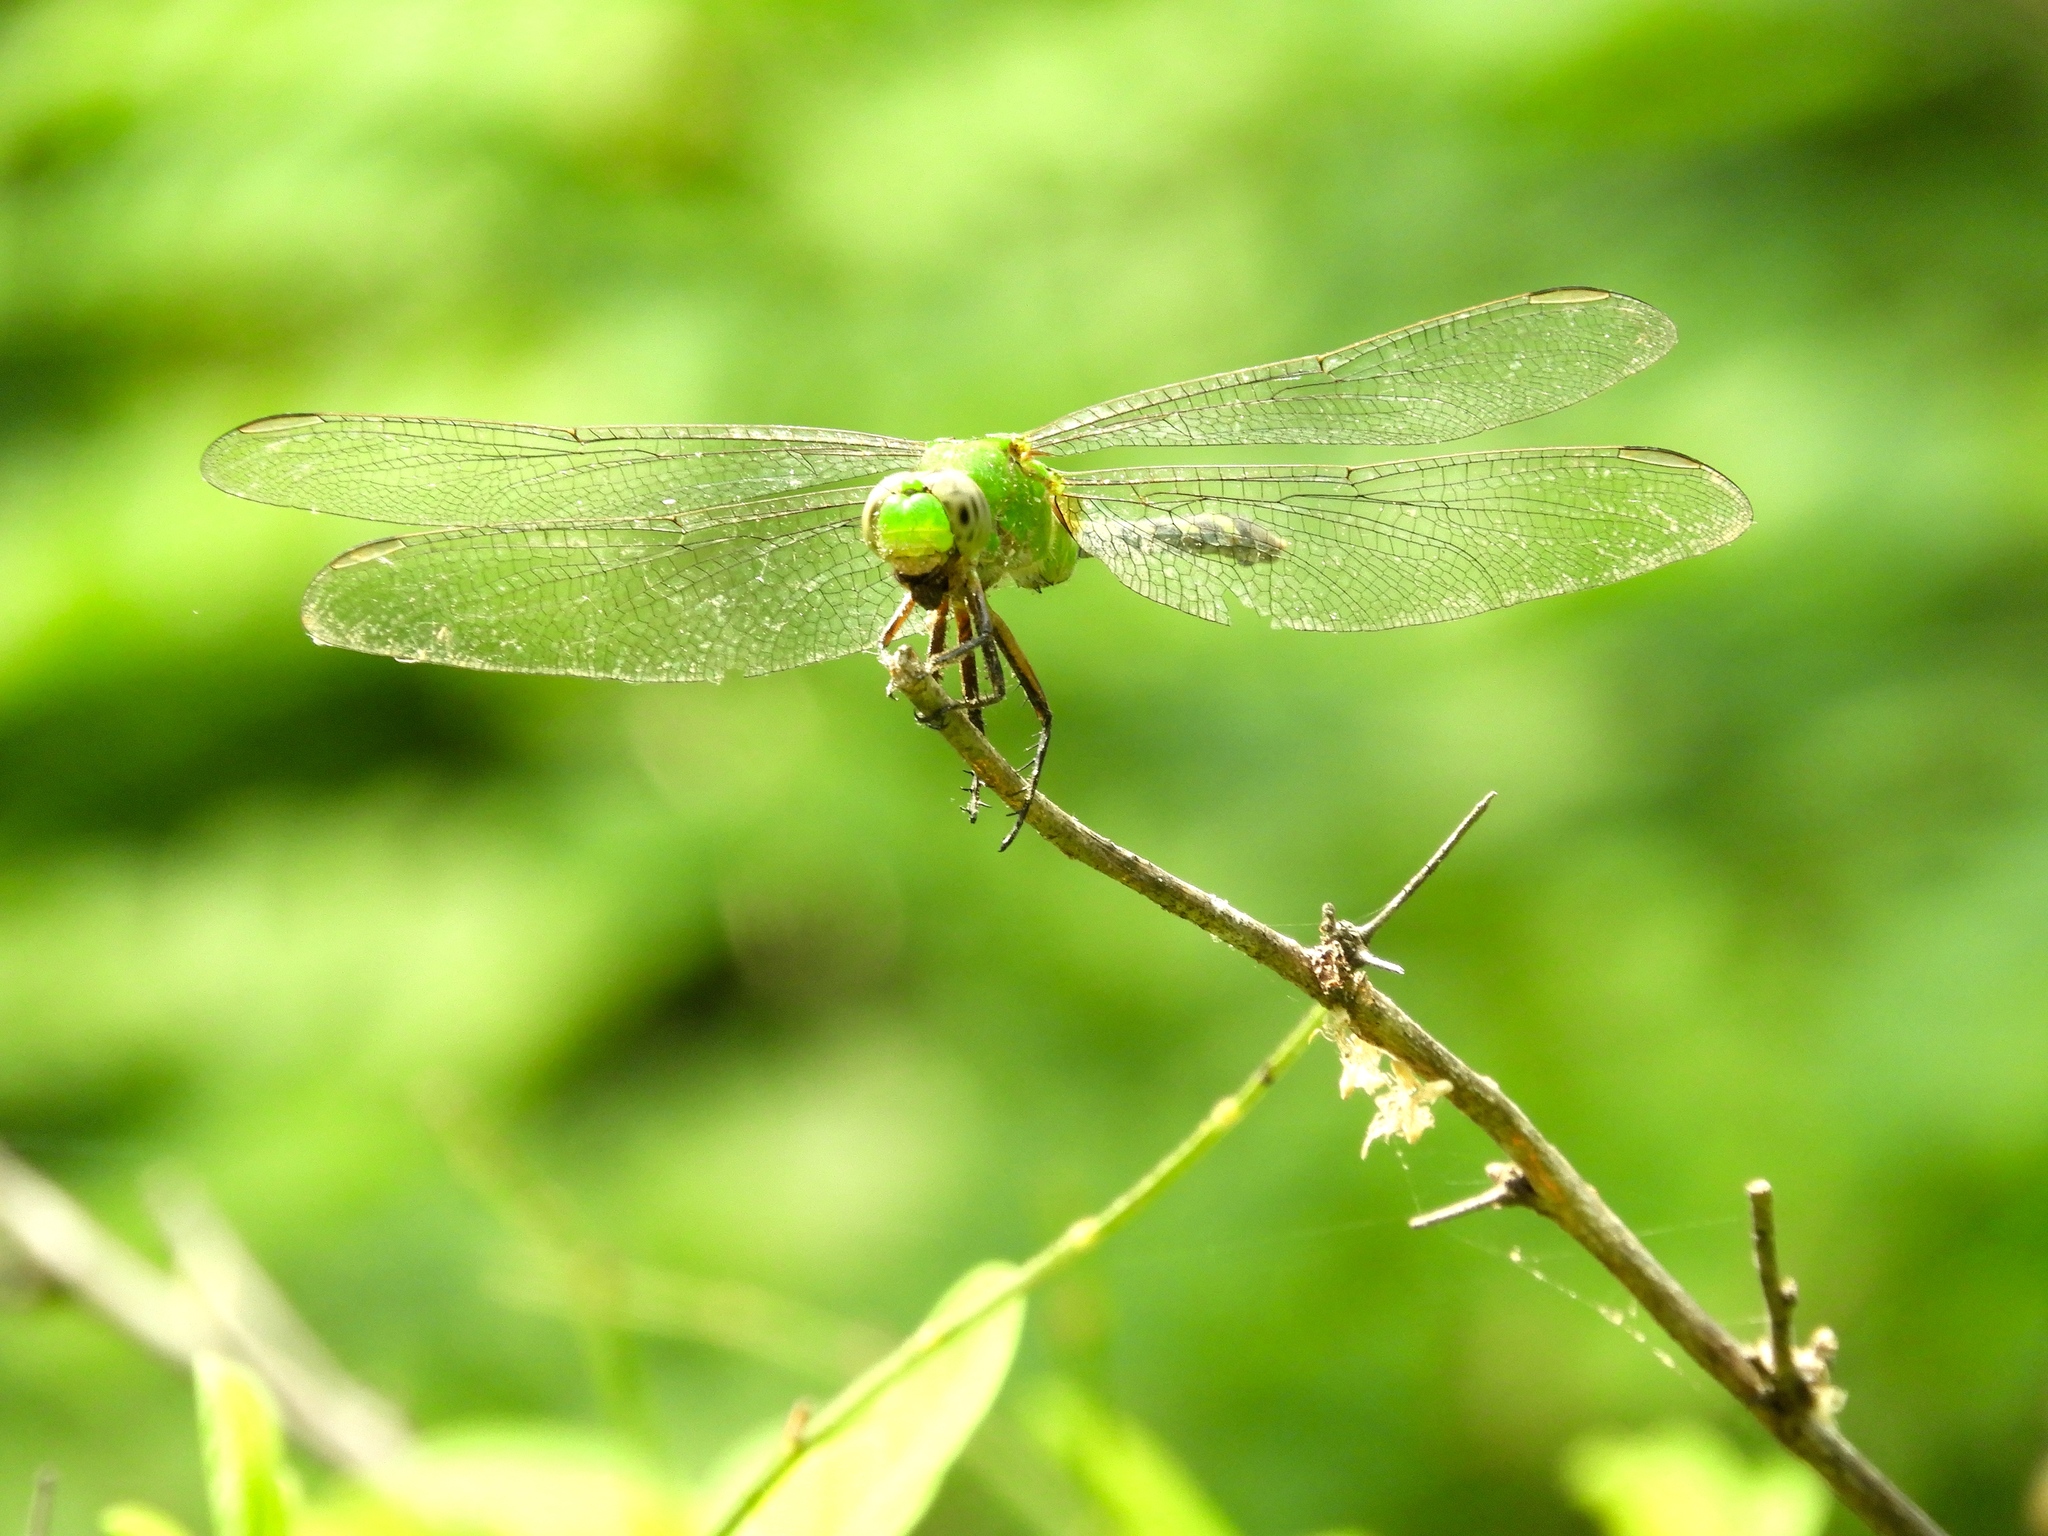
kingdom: Animalia
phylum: Arthropoda
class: Insecta
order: Odonata
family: Libellulidae
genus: Erythemis
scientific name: Erythemis vesiculosa
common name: Great pondhawk
